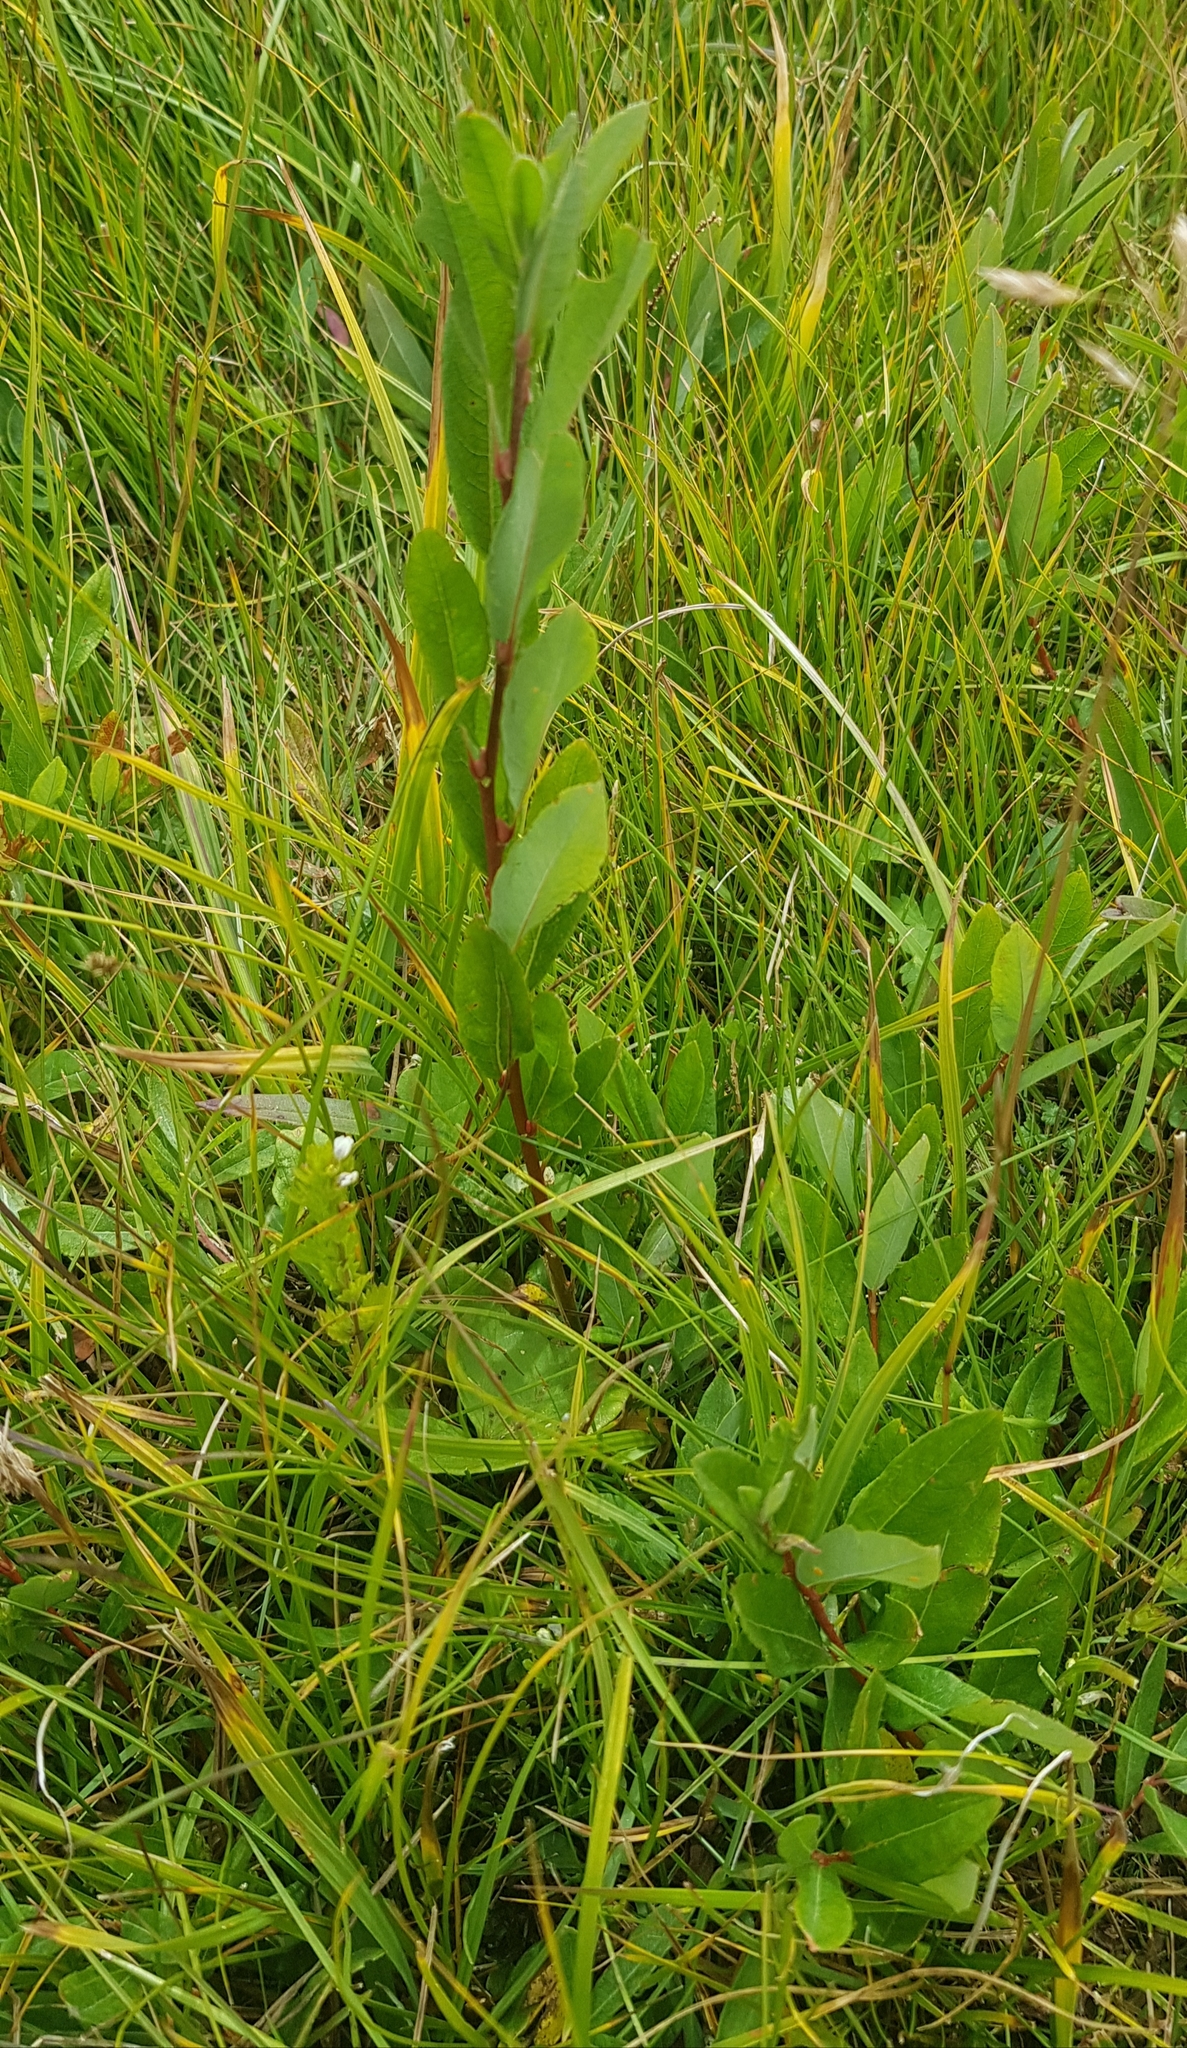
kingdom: Plantae
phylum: Tracheophyta
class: Magnoliopsida
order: Malpighiales
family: Salicaceae
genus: Salix
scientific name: Salix divaricata
